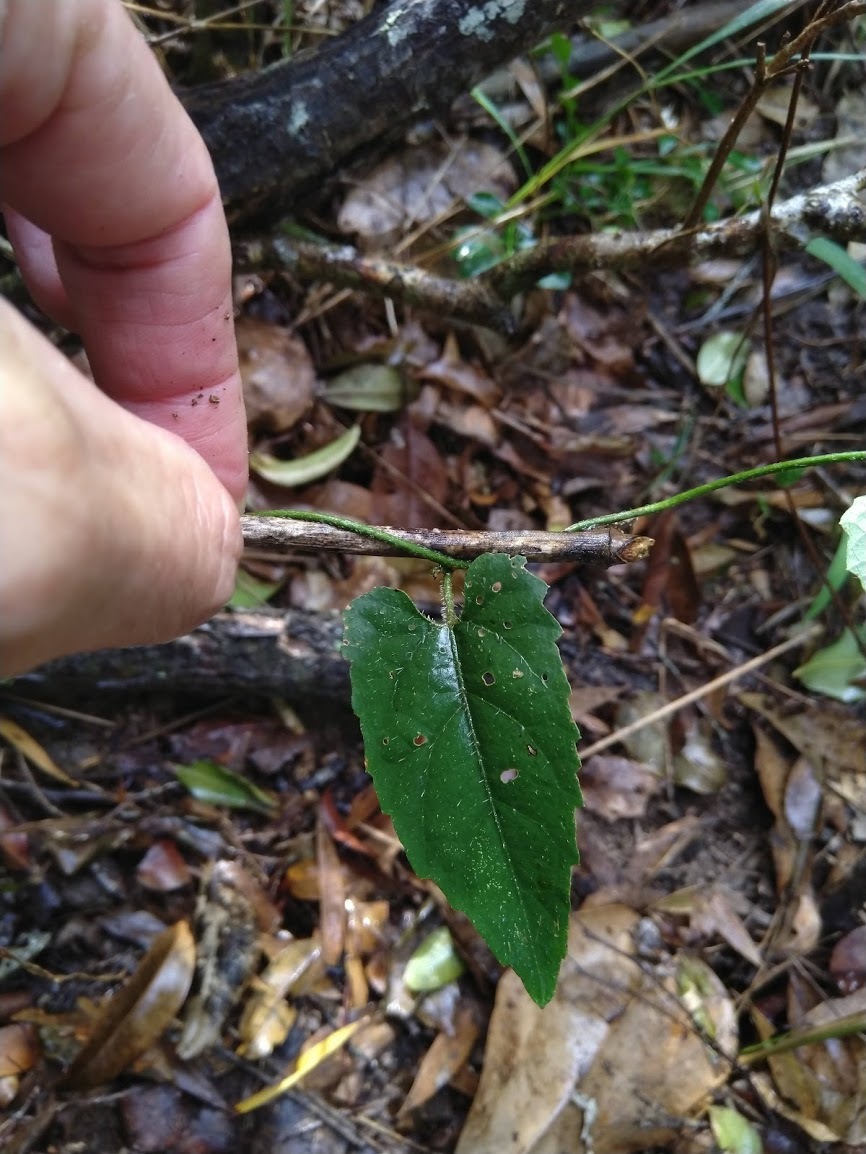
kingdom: Plantae
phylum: Tracheophyta
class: Magnoliopsida
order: Malpighiales
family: Euphorbiaceae
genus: Tragia
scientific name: Tragia novae-hollandiae
